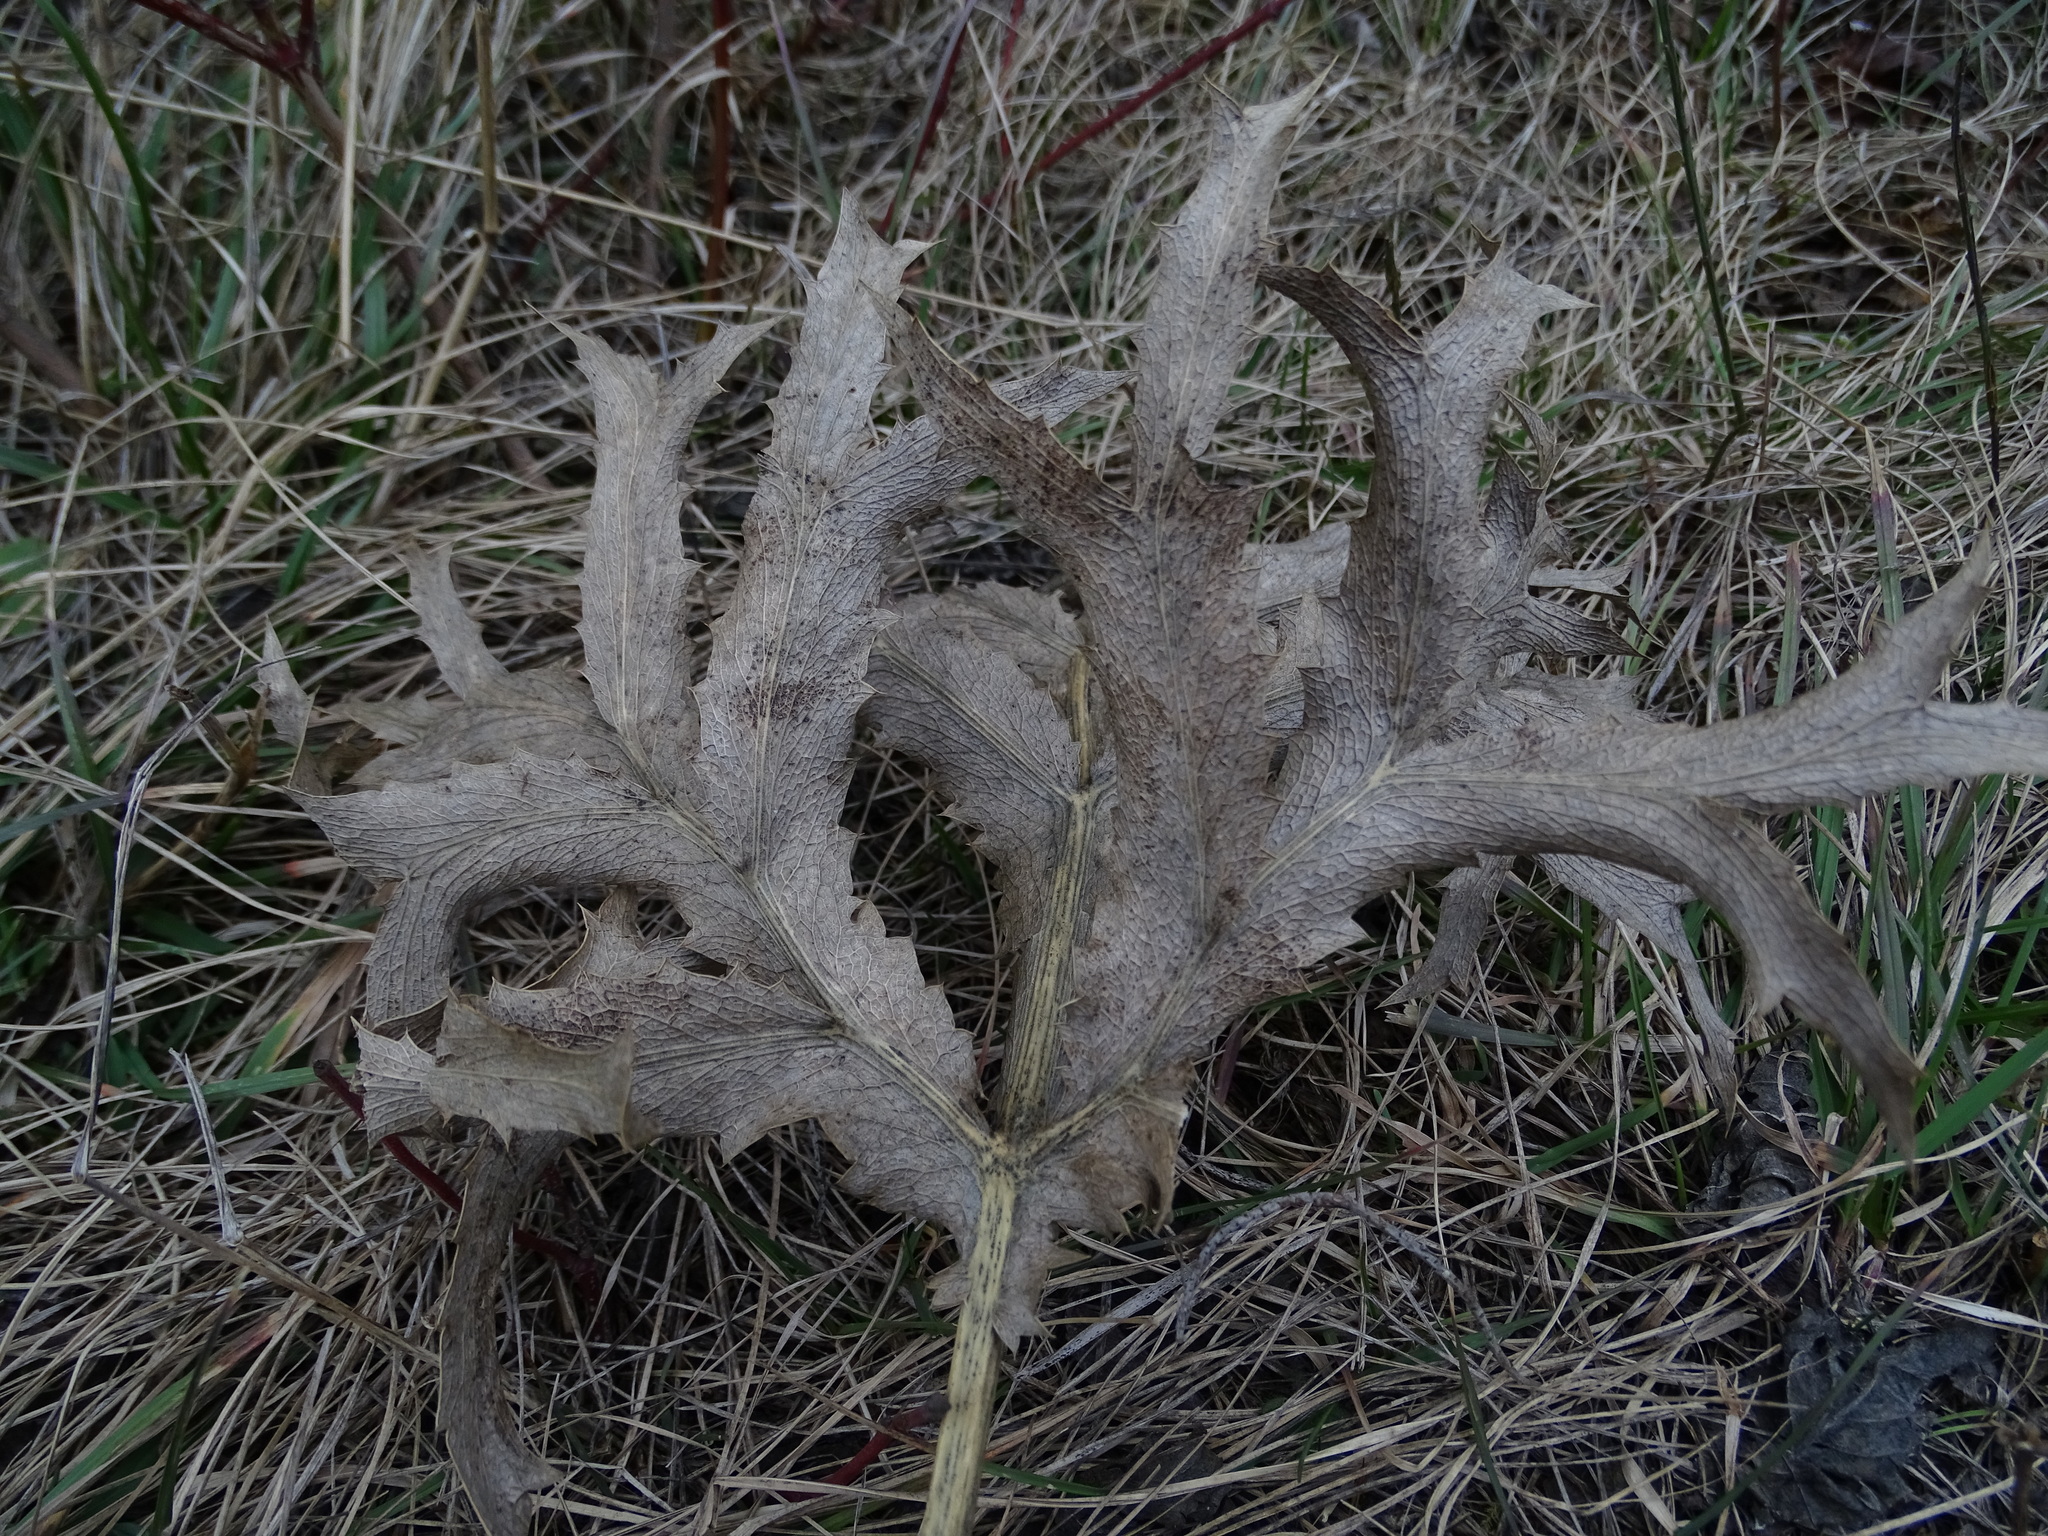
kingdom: Plantae
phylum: Tracheophyta
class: Magnoliopsida
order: Apiales
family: Apiaceae
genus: Eryngium
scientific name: Eryngium campestre
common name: Field eryngo
